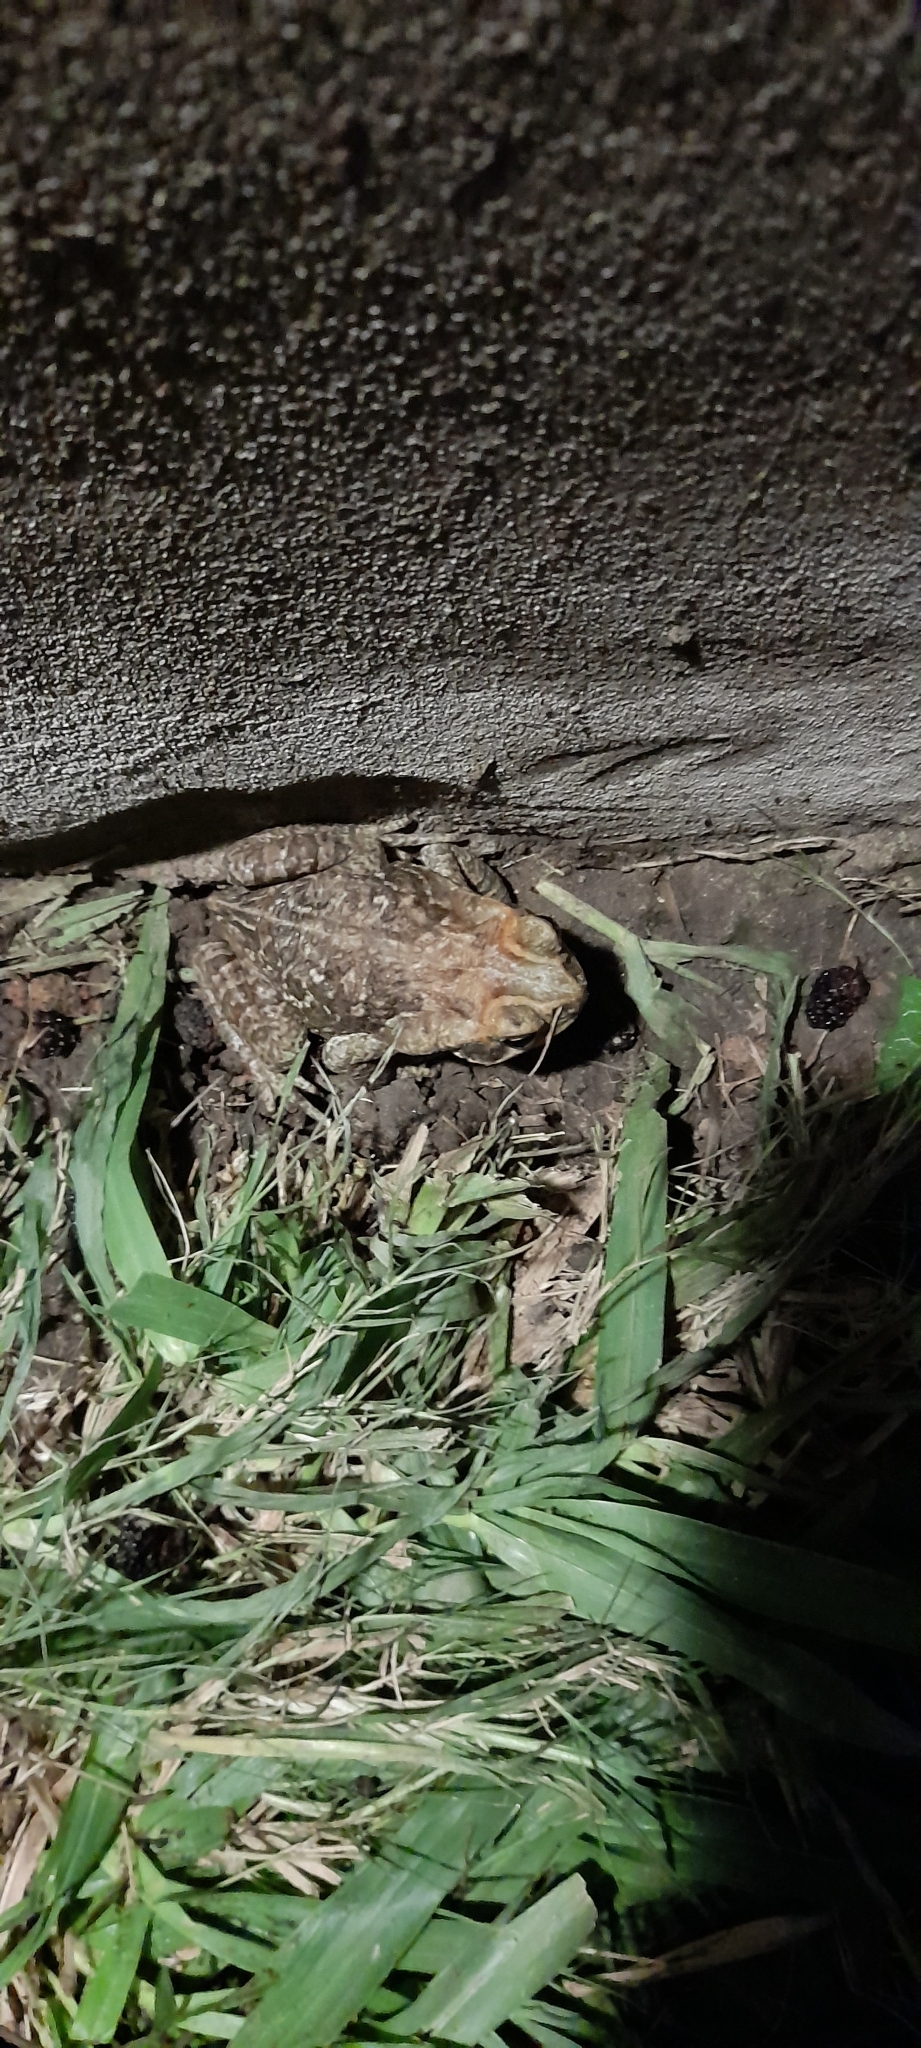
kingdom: Animalia
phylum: Chordata
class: Amphibia
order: Anura
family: Bufonidae
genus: Rhinella
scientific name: Rhinella diptycha
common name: Cope's toad
